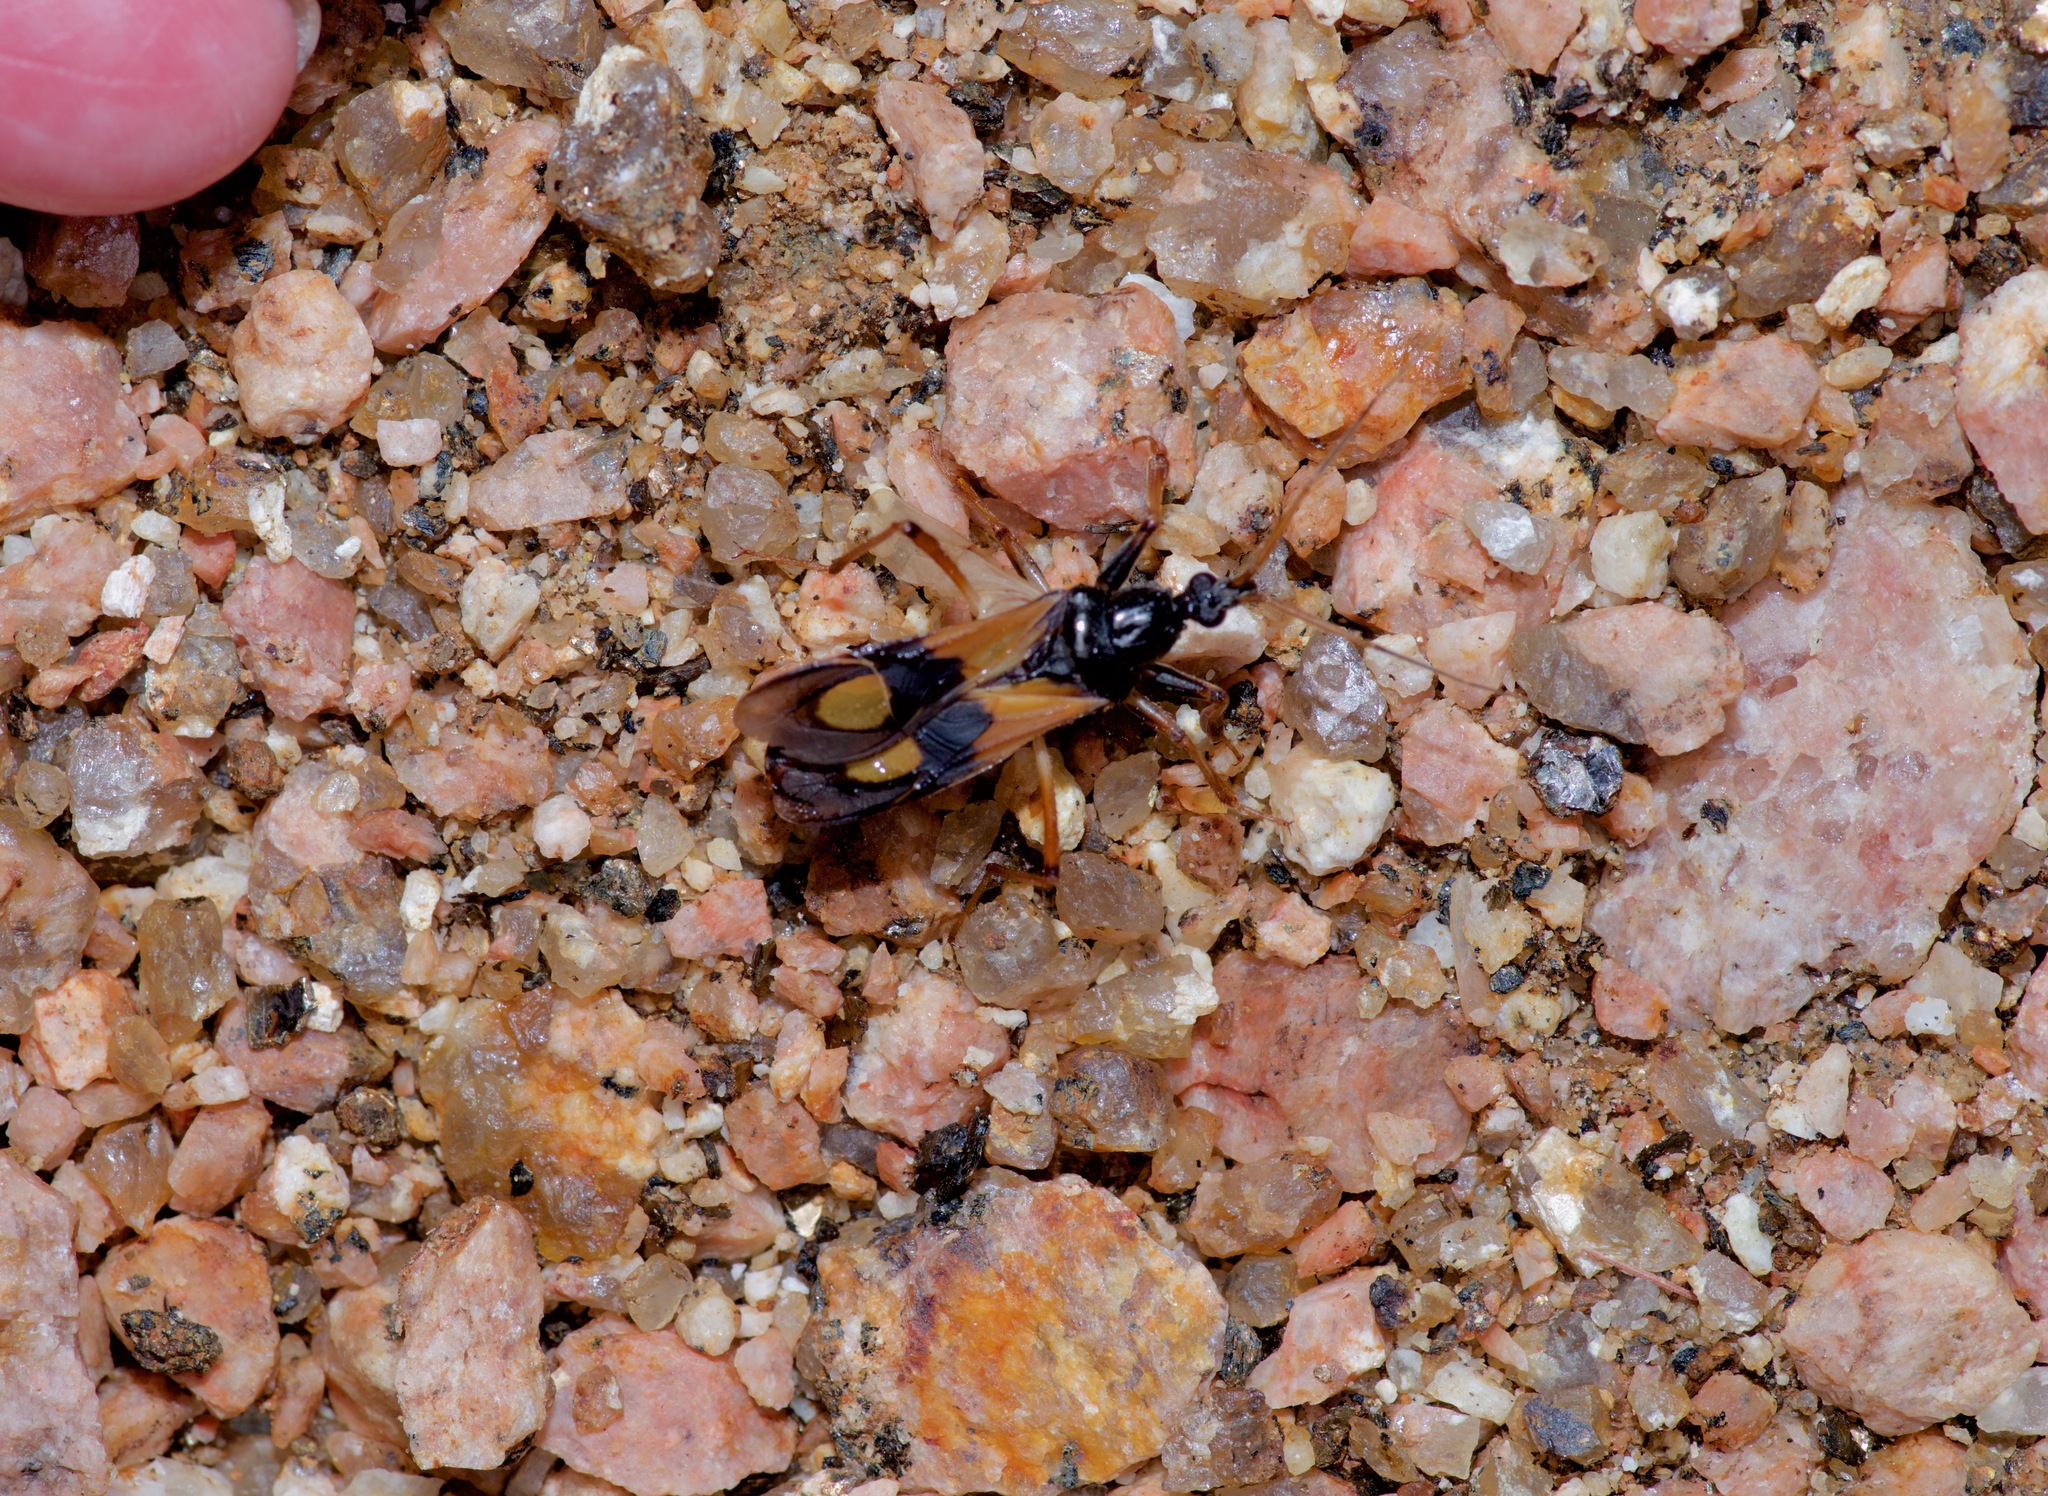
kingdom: Animalia
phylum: Arthropoda
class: Insecta
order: Hemiptera
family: Reduviidae
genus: Rasahus
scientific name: Rasahus biguttatus
